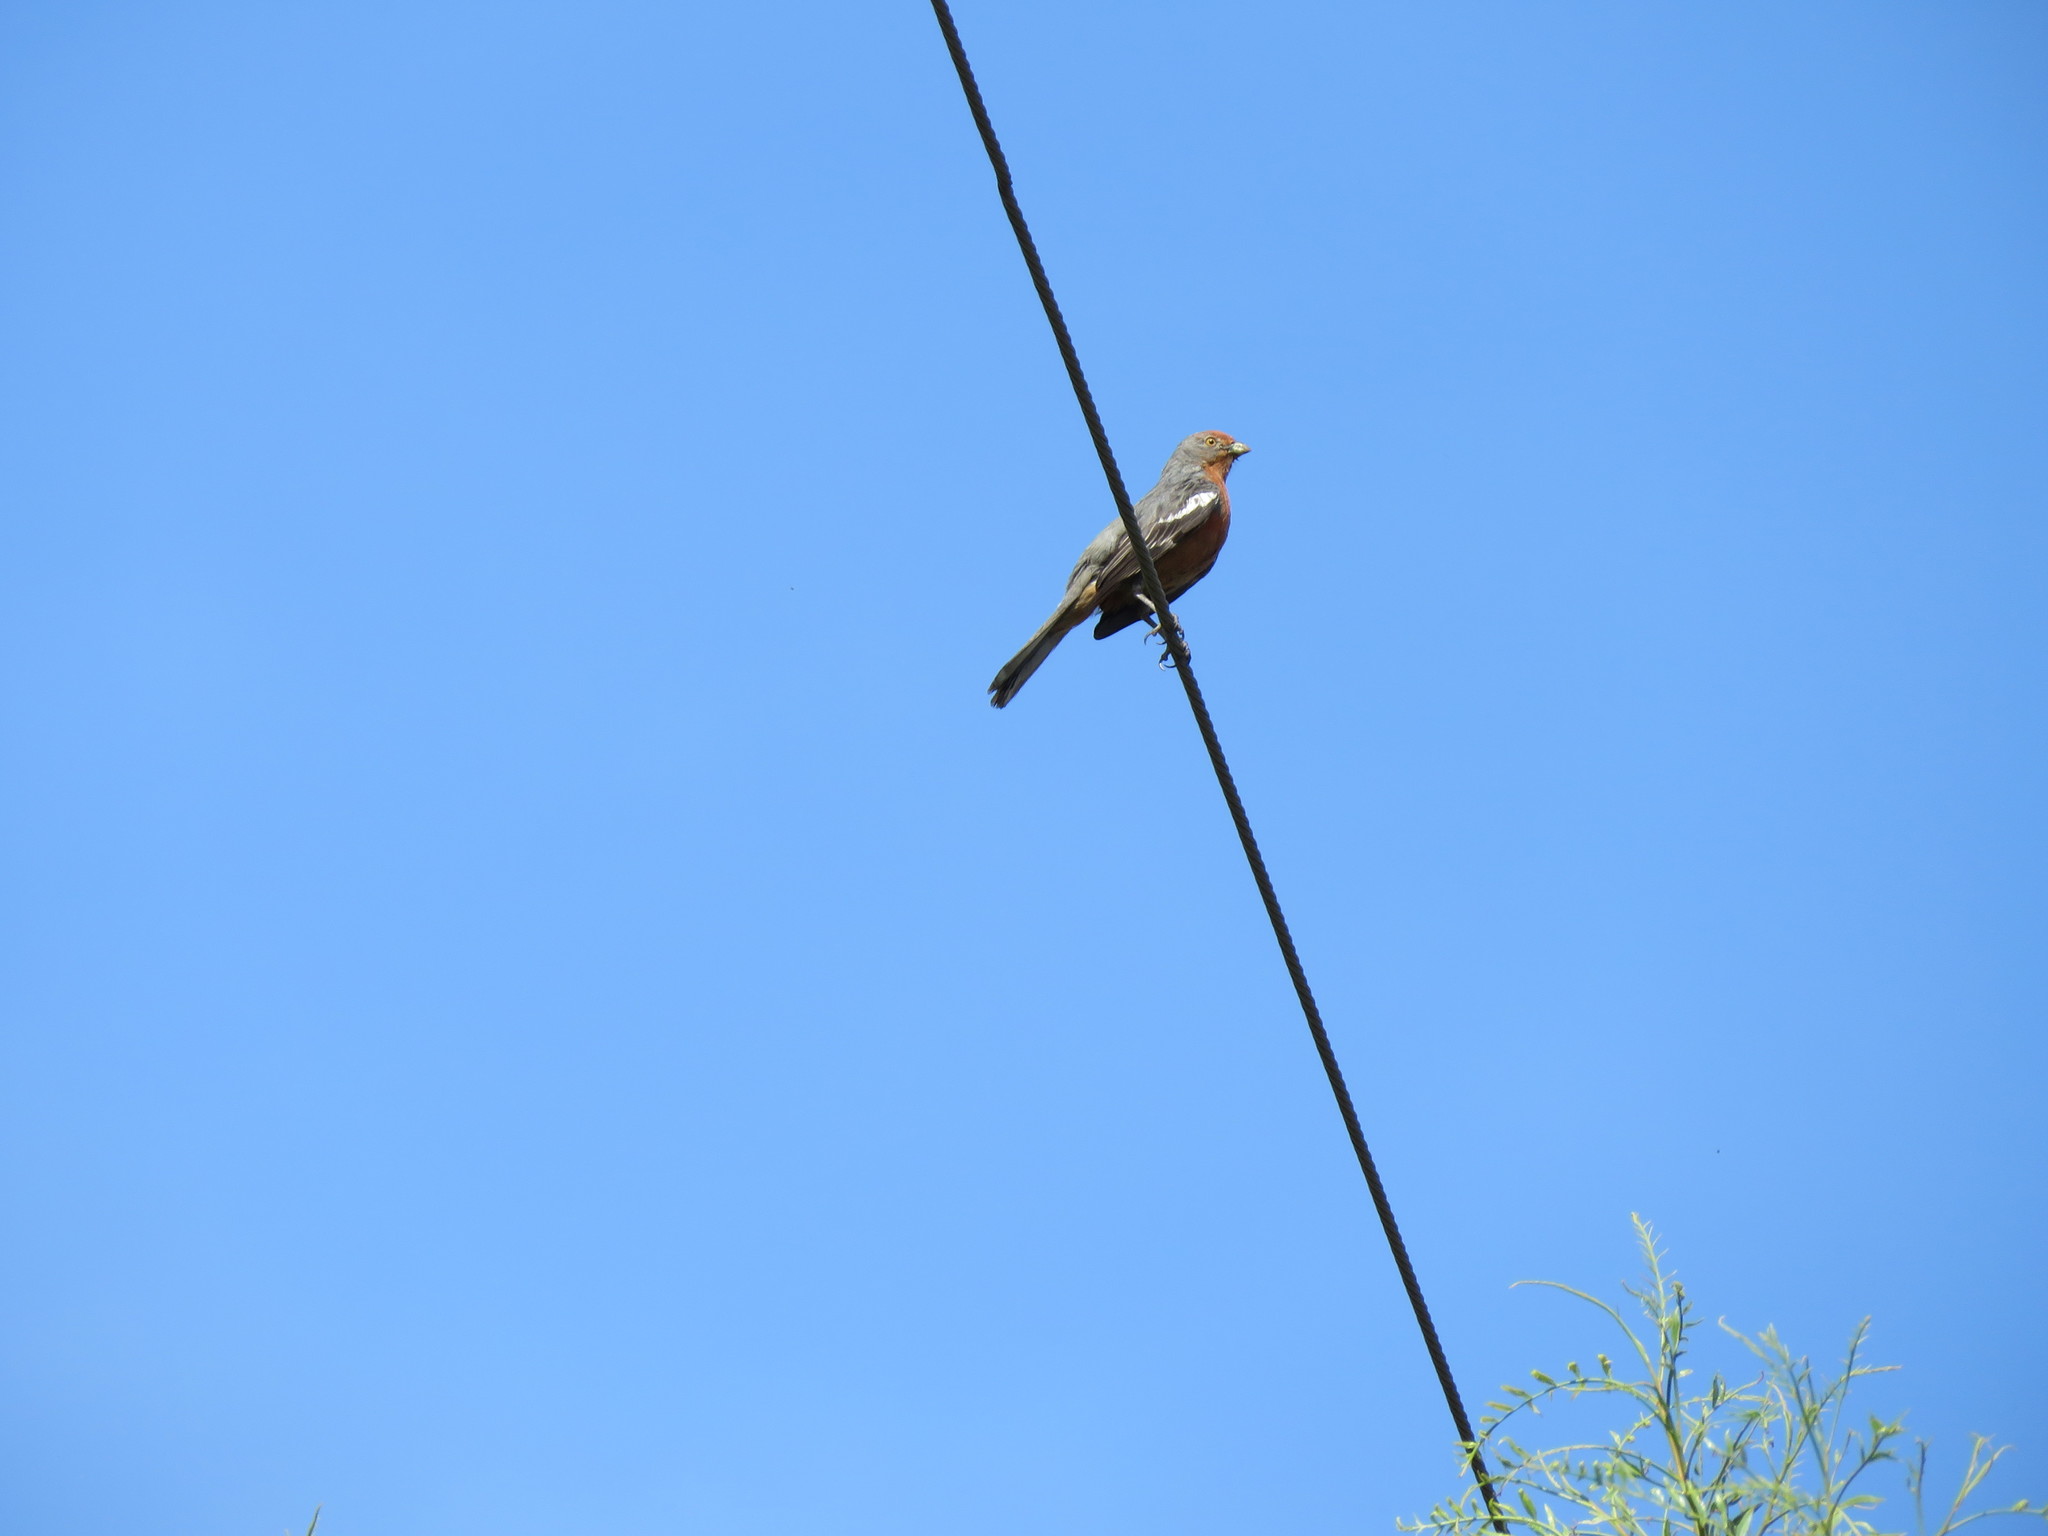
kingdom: Animalia
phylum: Chordata
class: Aves
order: Passeriformes
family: Cotingidae
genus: Phytotoma
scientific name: Phytotoma rutila
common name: White-tipped plantcutter
